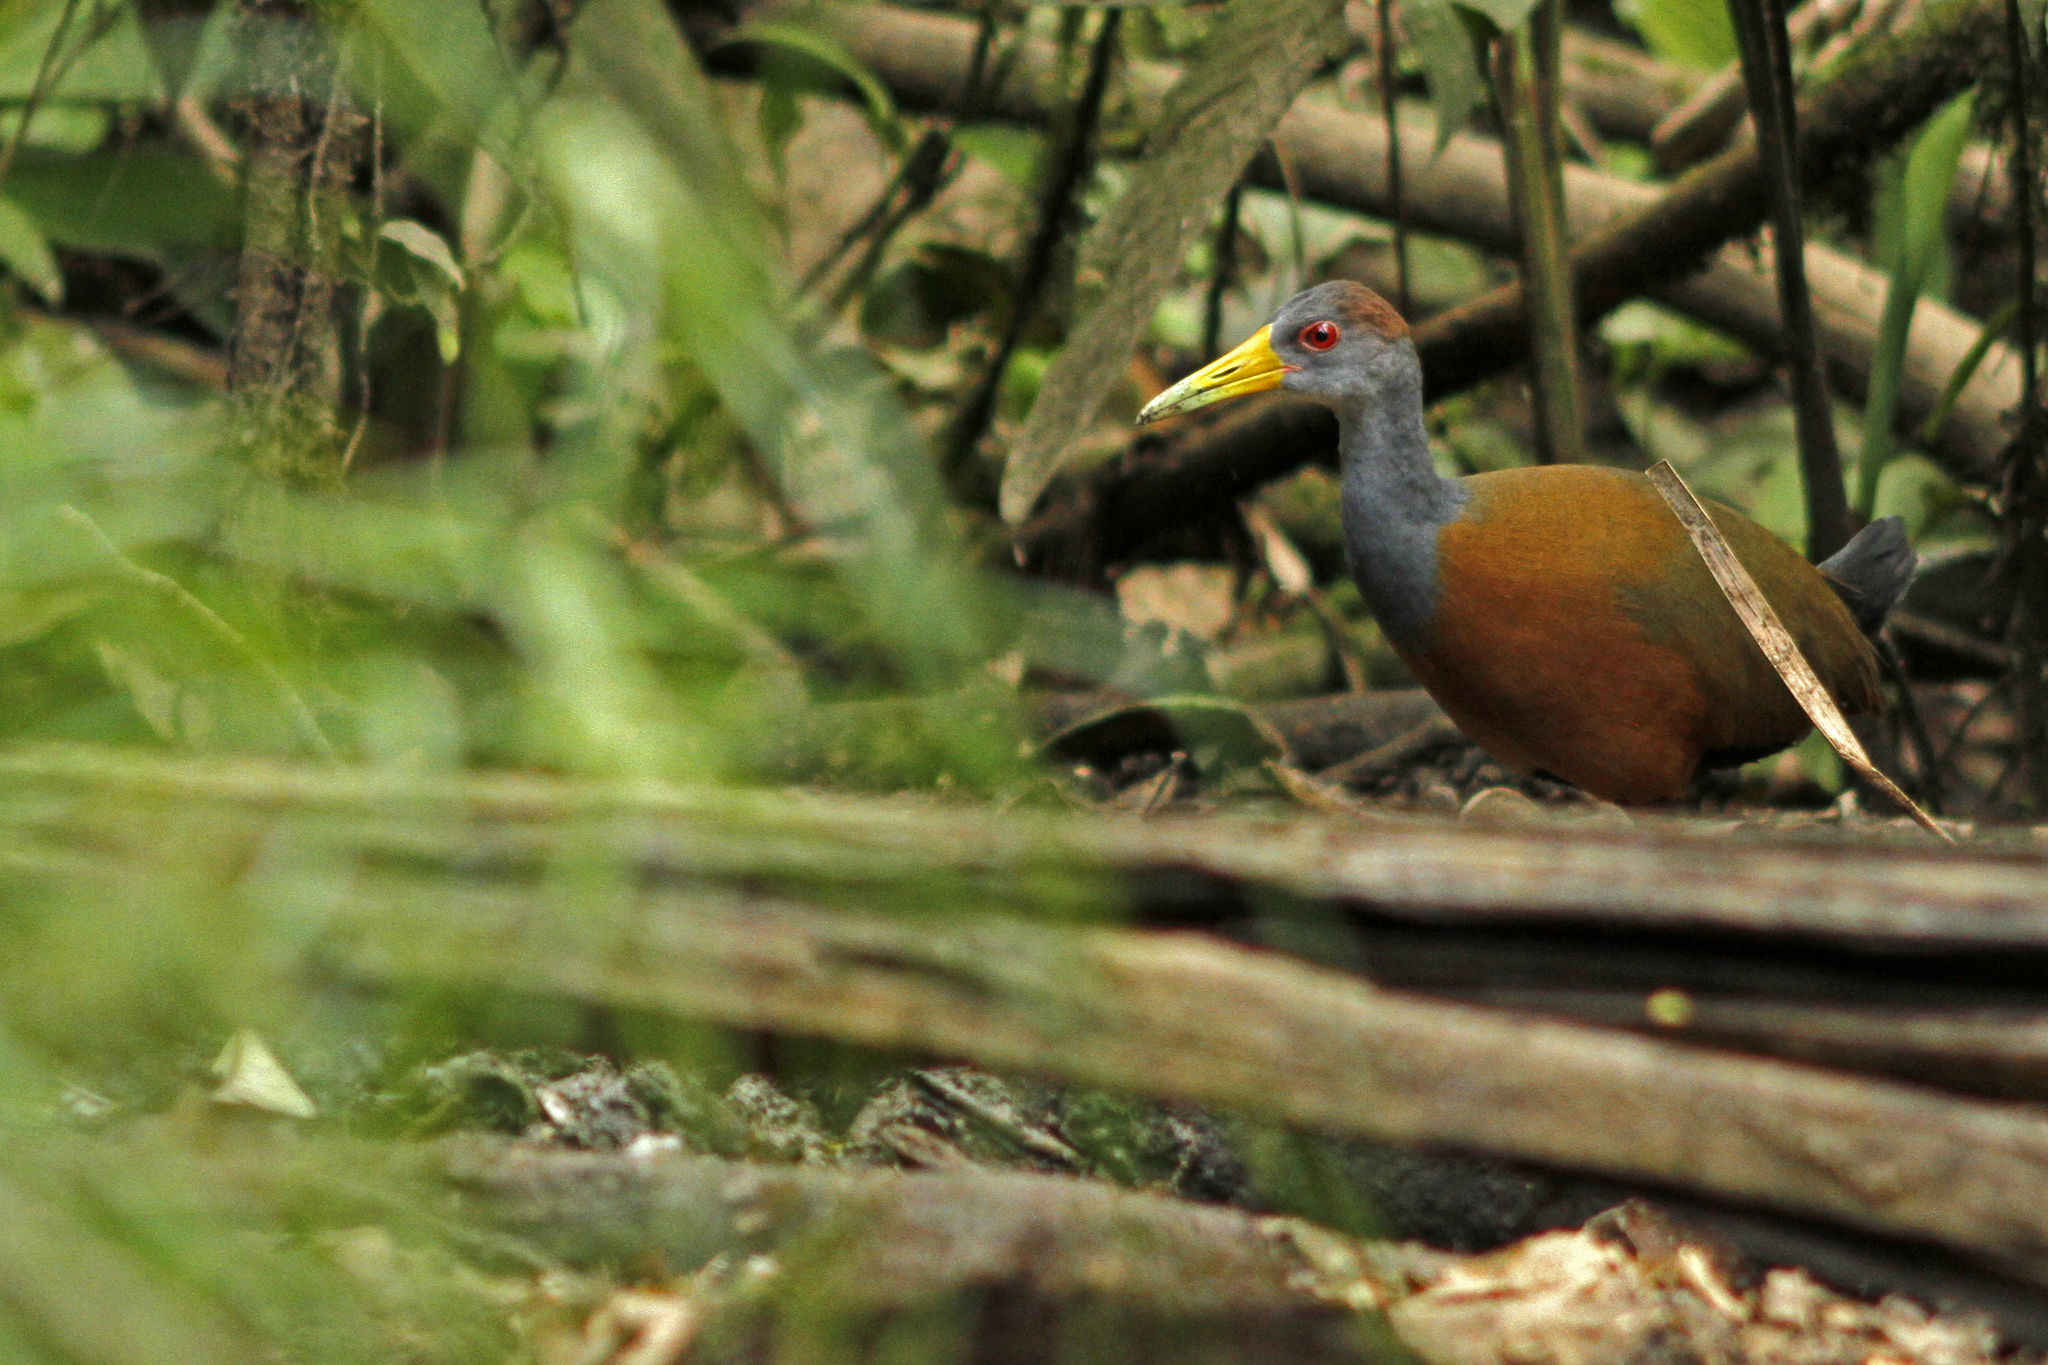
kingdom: Animalia
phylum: Chordata
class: Aves
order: Gruiformes
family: Rallidae
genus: Aramides
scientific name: Aramides albiventris
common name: Russet-naped wood-rail
